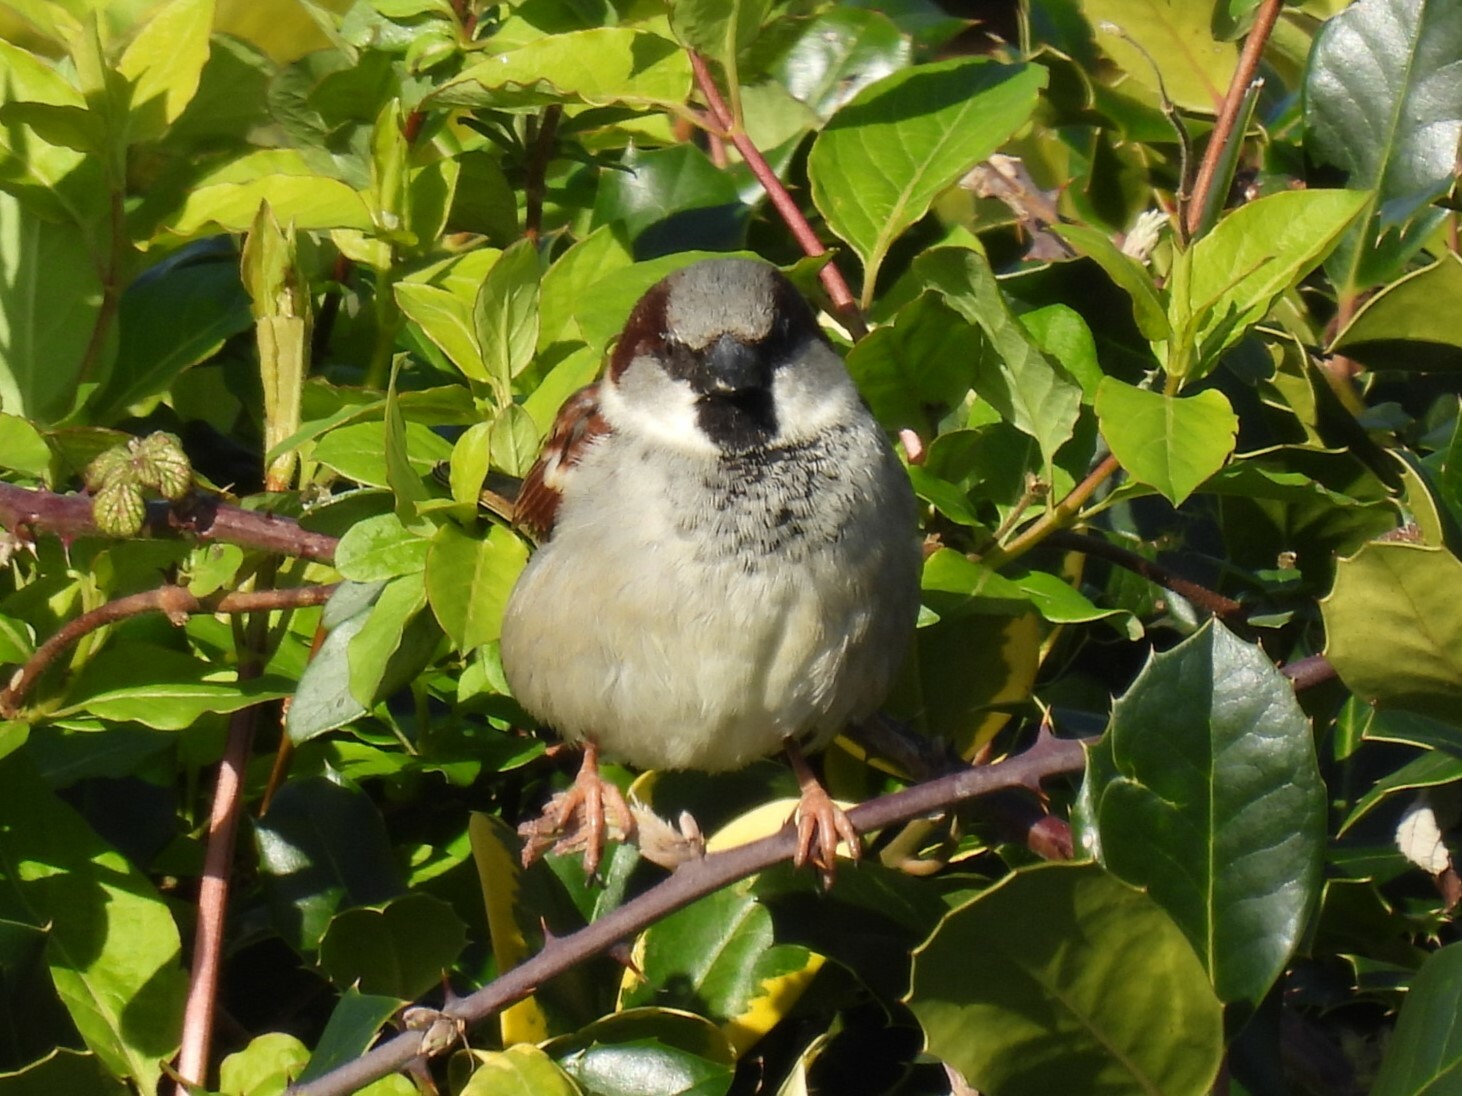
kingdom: Animalia
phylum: Chordata
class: Aves
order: Passeriformes
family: Passeridae
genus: Passer
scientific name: Passer domesticus
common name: House sparrow
